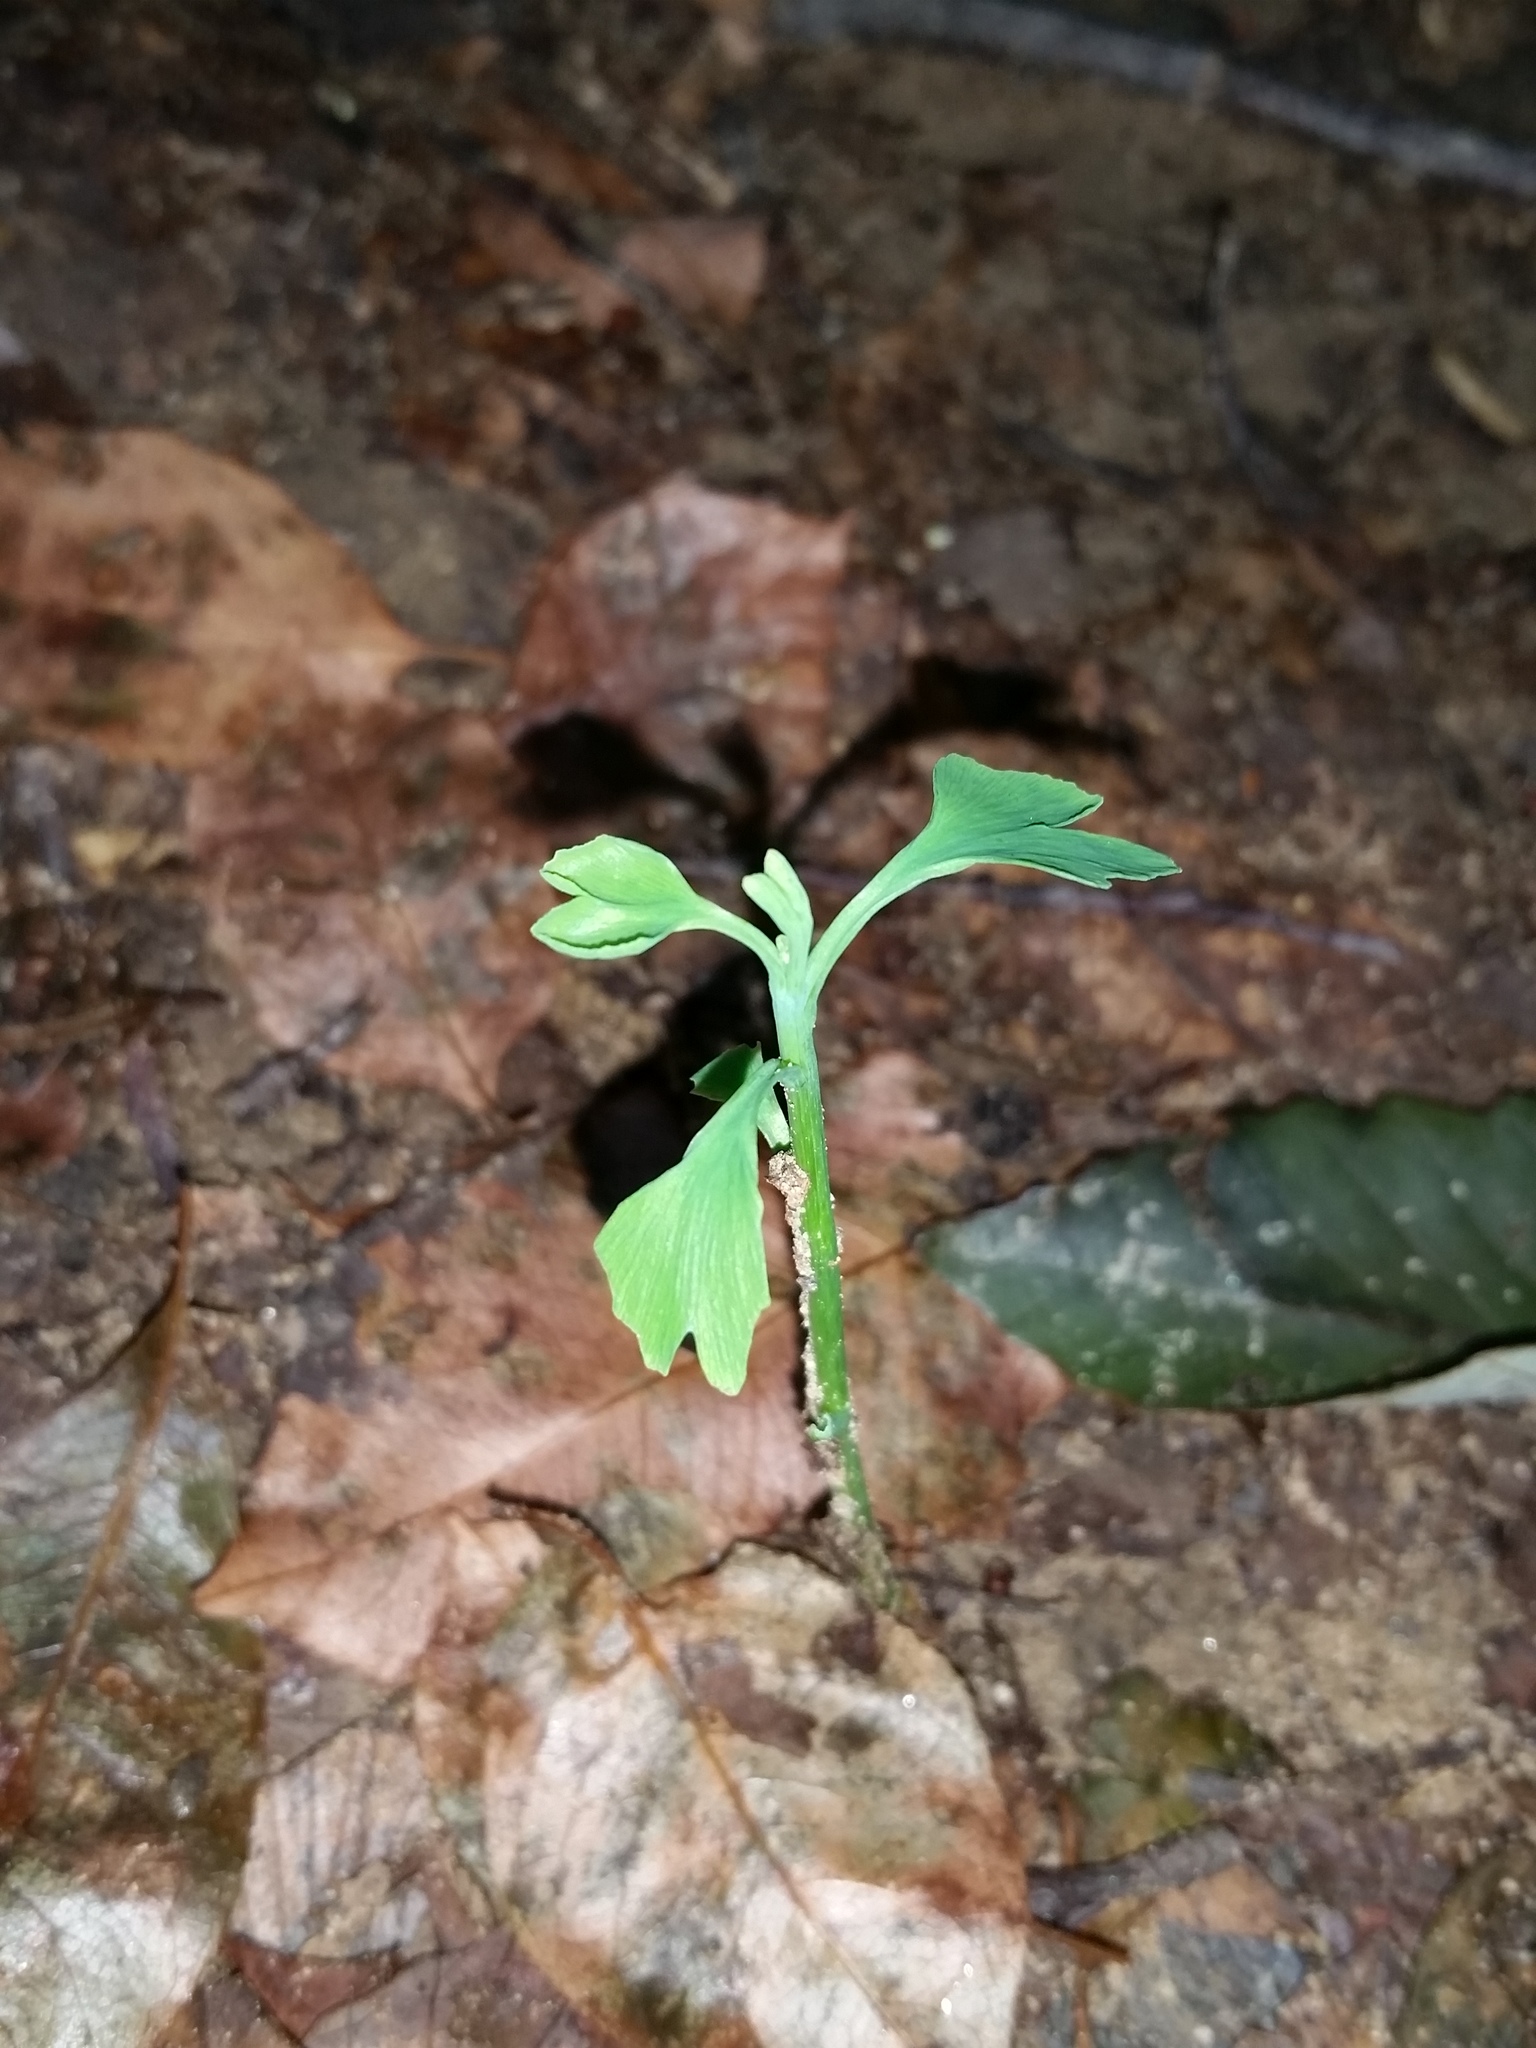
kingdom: Plantae
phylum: Tracheophyta
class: Ginkgoopsida
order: Ginkgoales
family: Ginkgoaceae
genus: Ginkgo
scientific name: Ginkgo biloba
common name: Ginkgo
